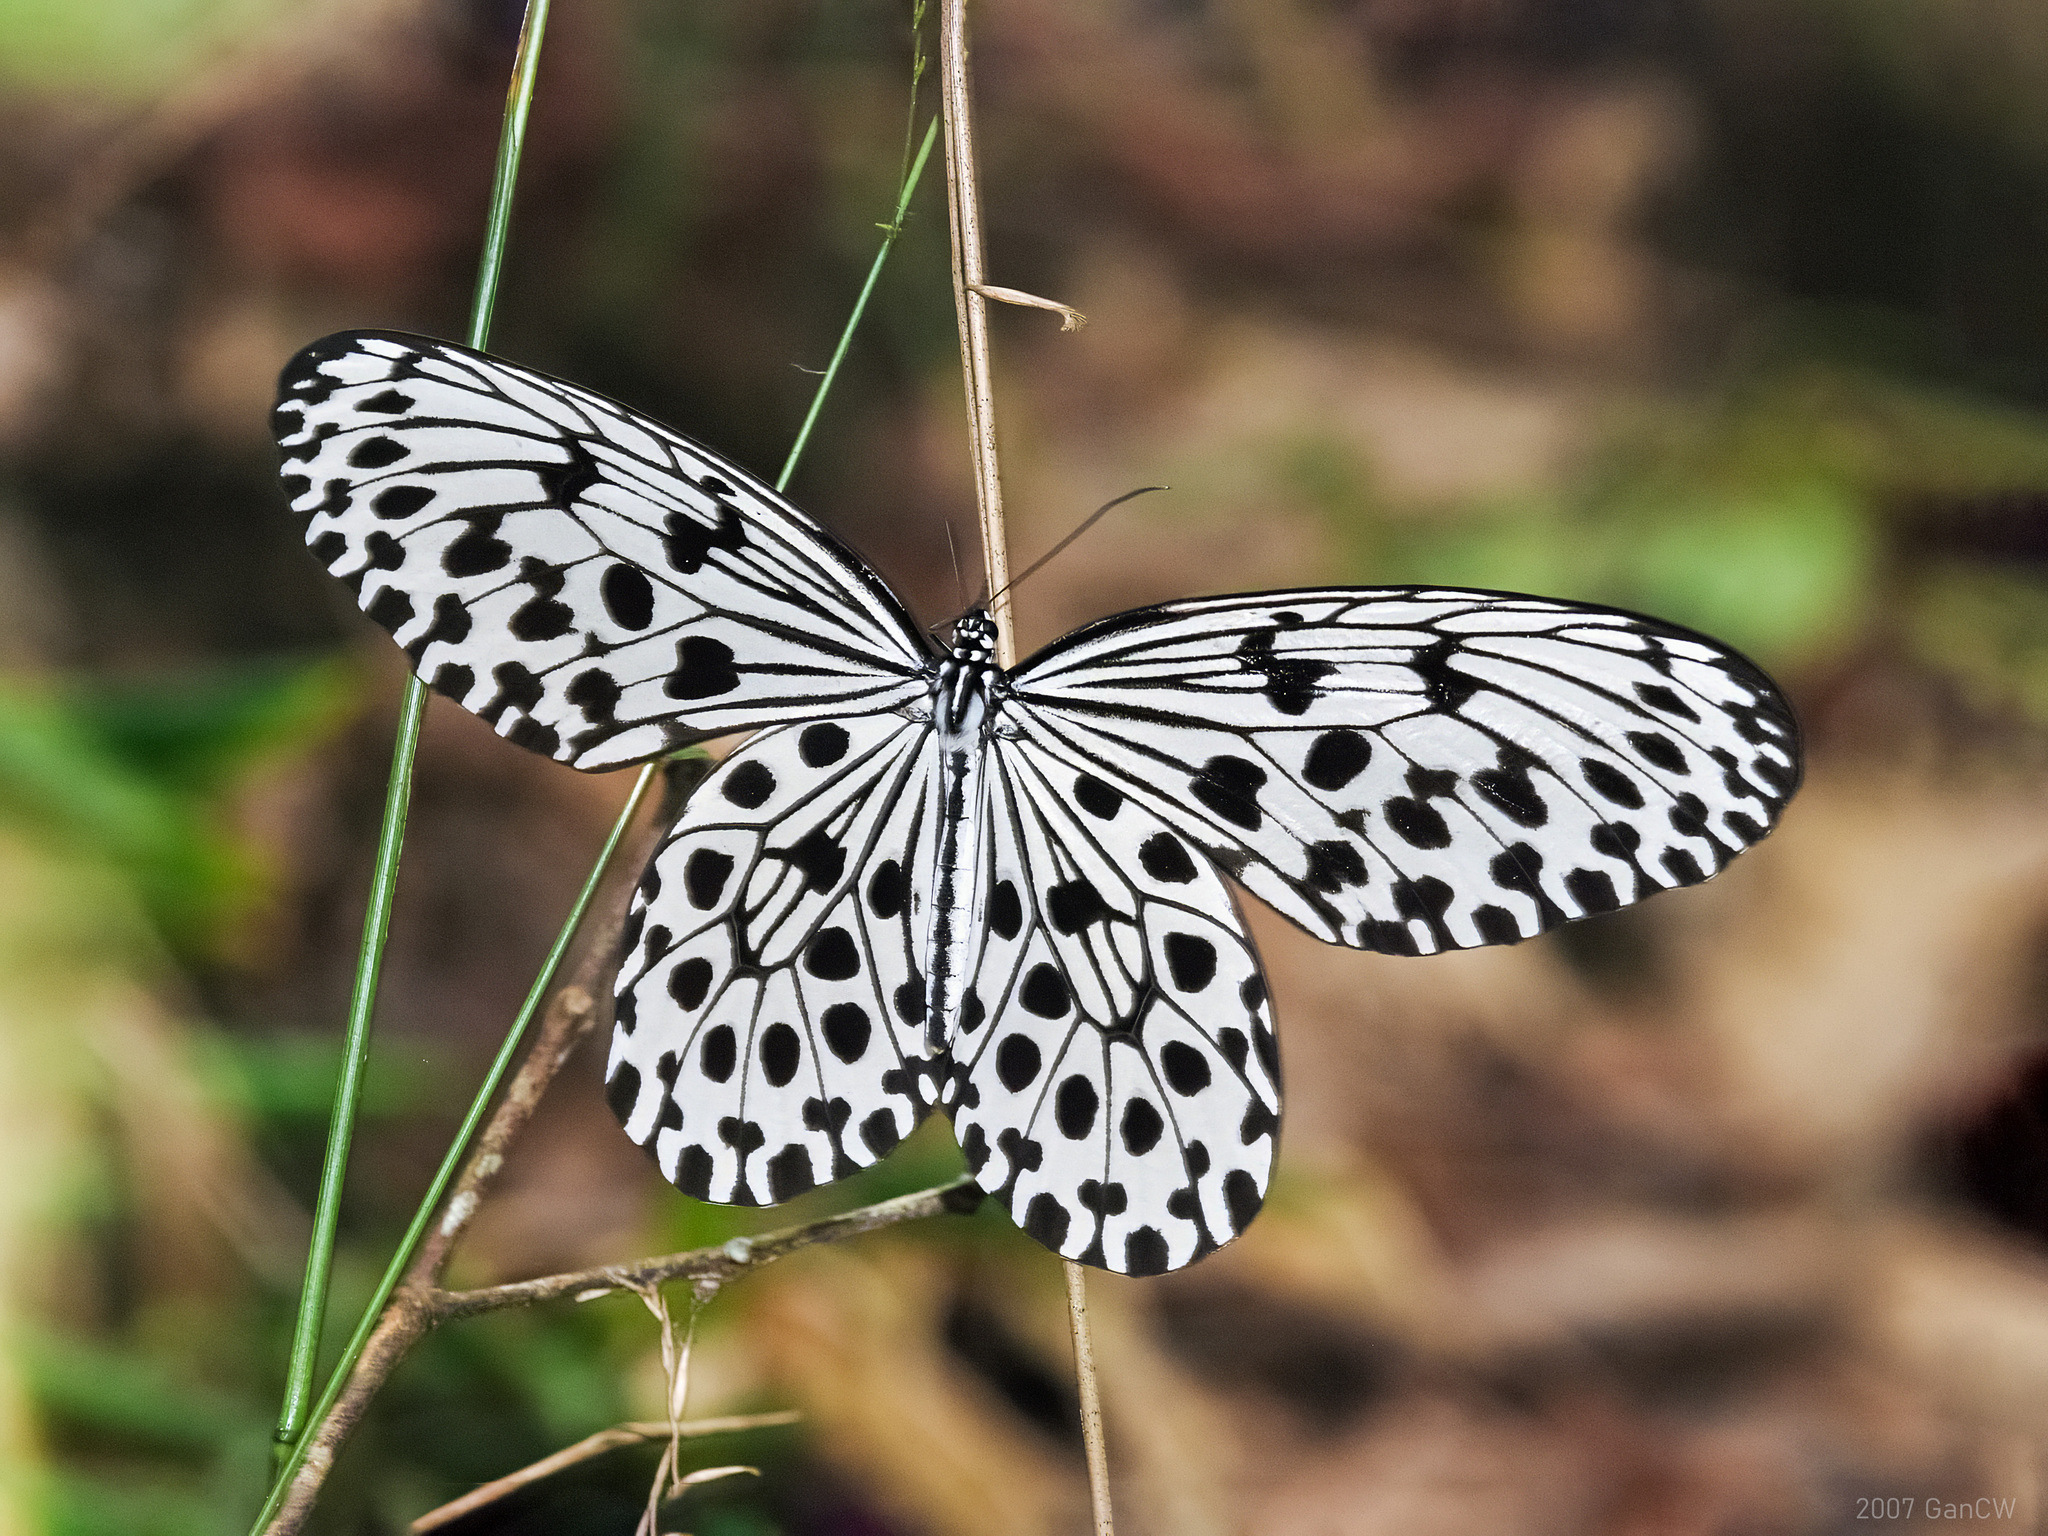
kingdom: Animalia
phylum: Arthropoda
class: Insecta
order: Lepidoptera
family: Nymphalidae
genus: Idea
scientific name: Idea hypermnestra
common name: Malayan tree nymph
